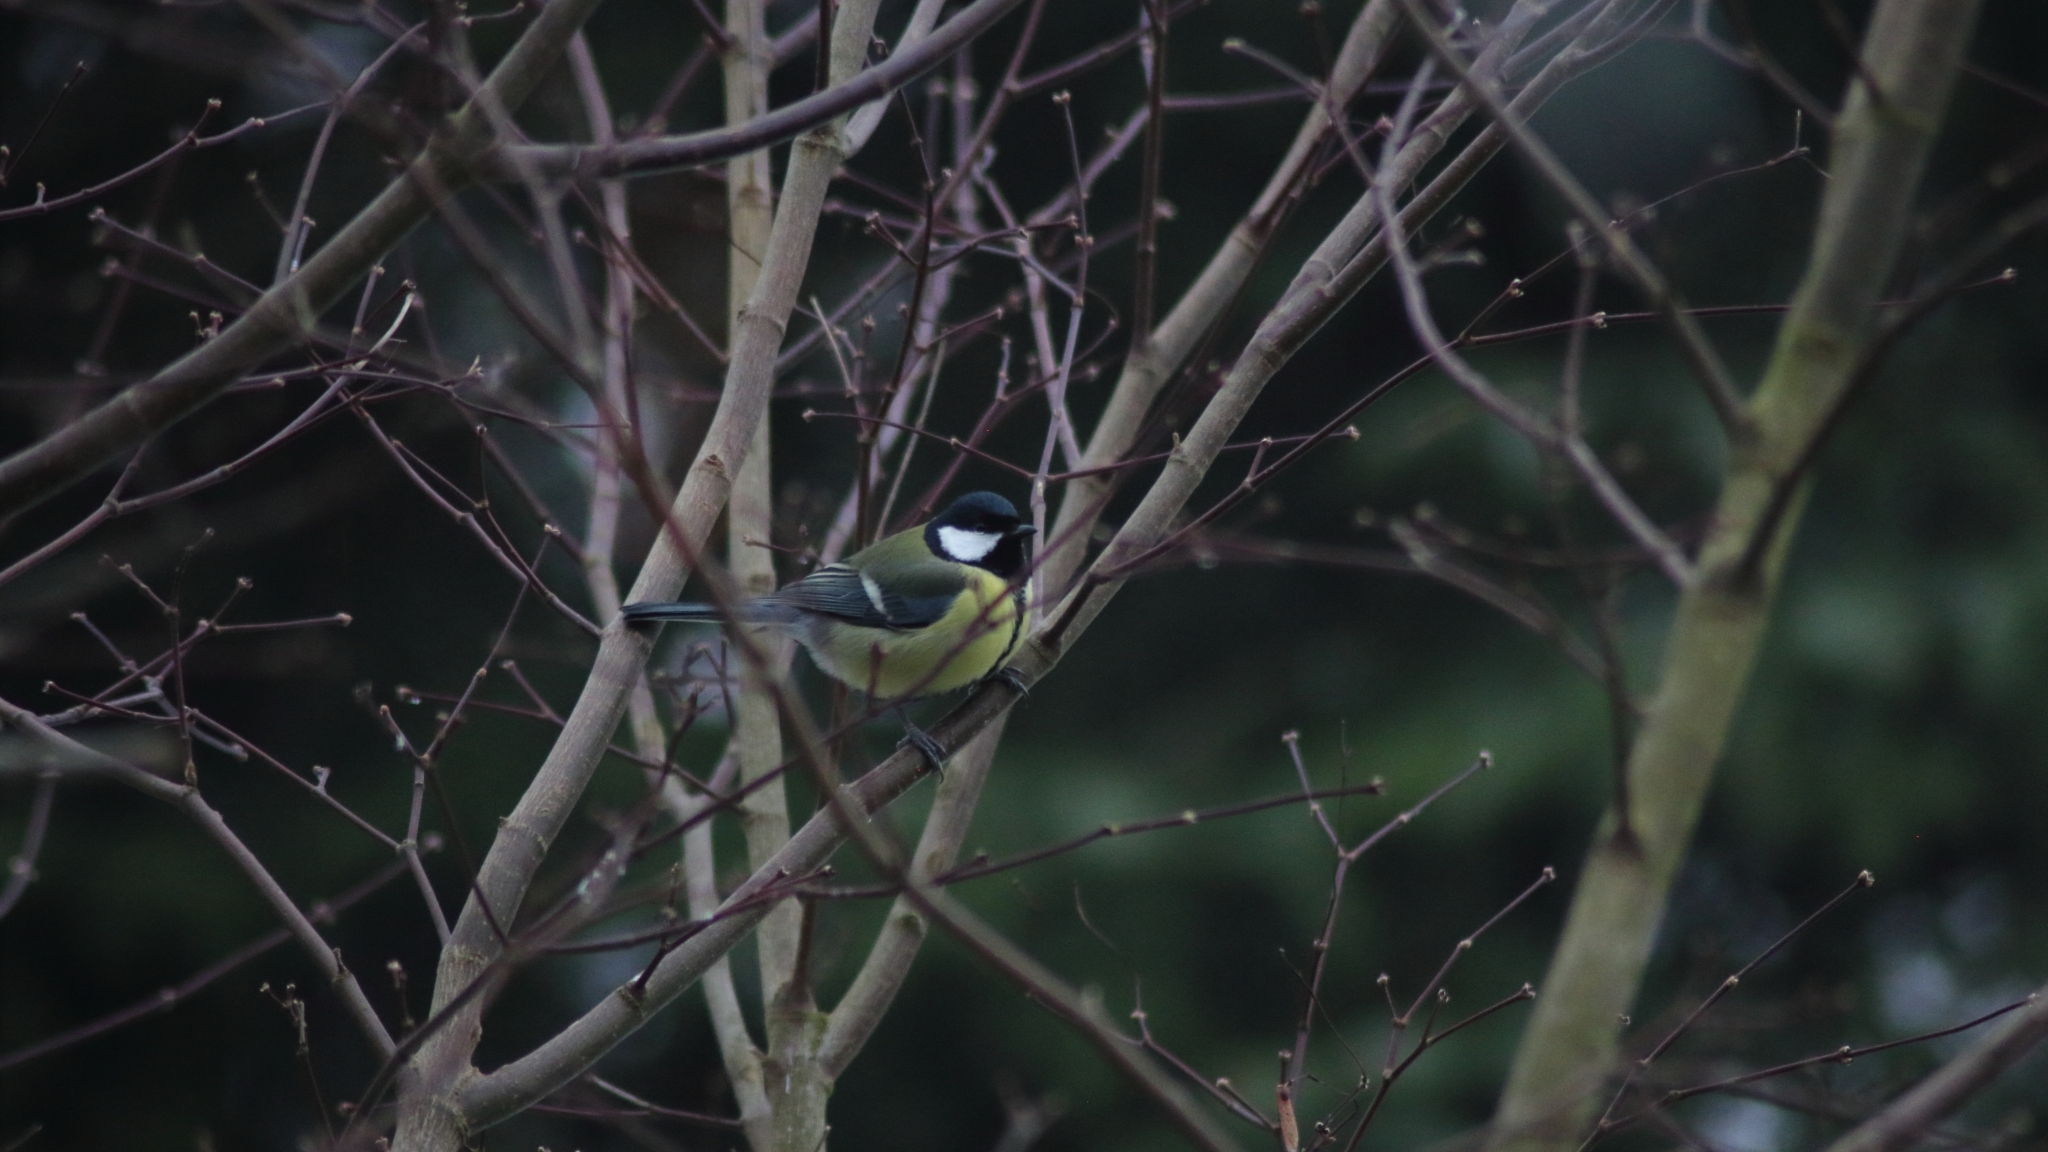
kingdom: Animalia
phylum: Chordata
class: Aves
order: Passeriformes
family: Paridae
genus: Parus
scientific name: Parus major
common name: Great tit
